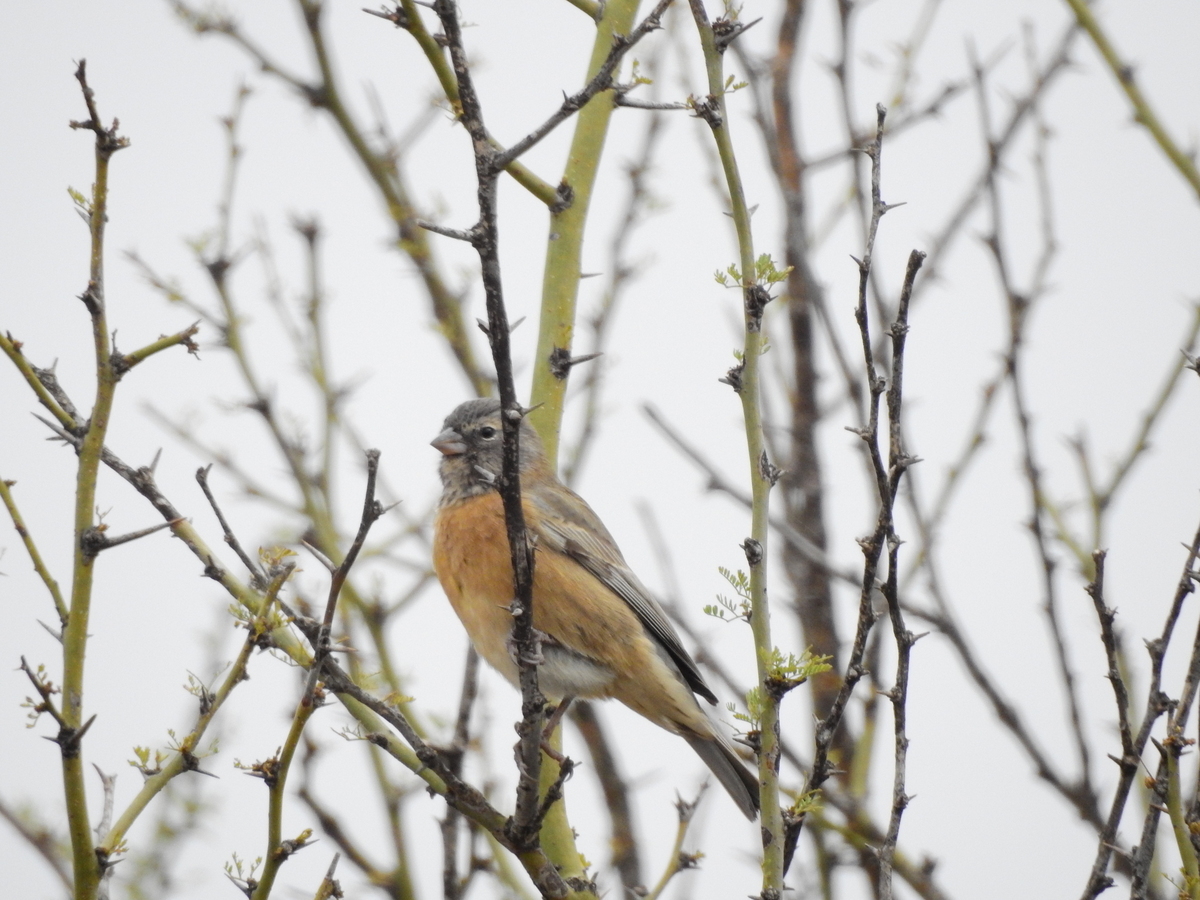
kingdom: Animalia
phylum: Chordata
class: Aves
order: Passeriformes
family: Thraupidae
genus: Phrygilus
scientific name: Phrygilus gayi
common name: Grey-hooded sierra finch
